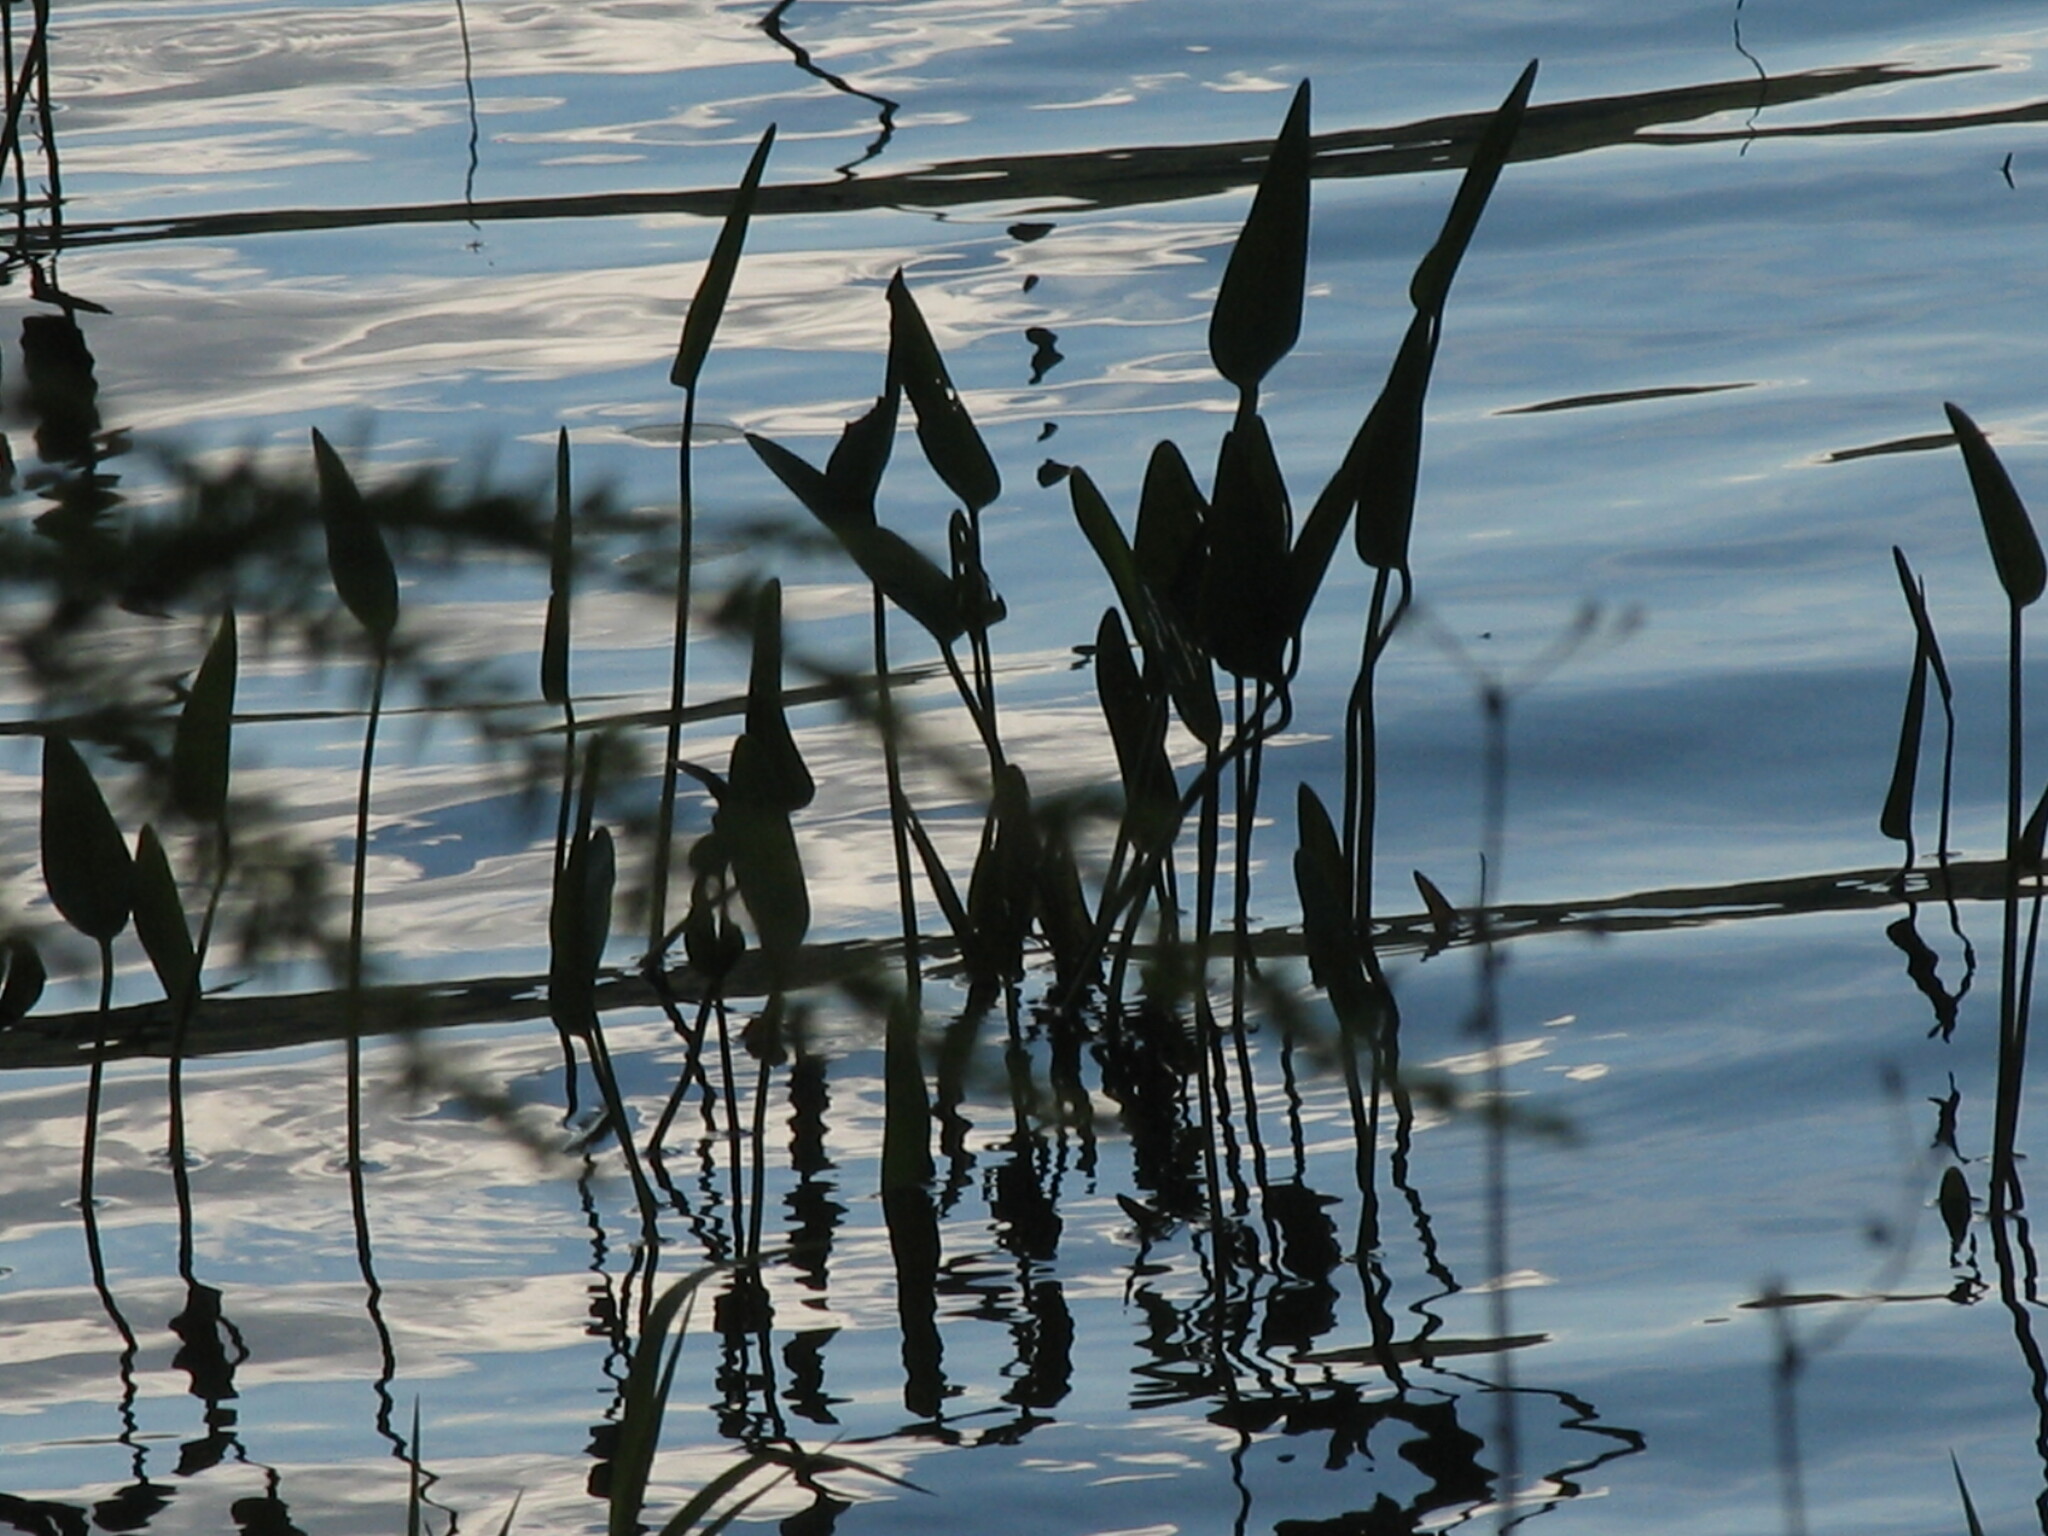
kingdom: Plantae
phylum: Tracheophyta
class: Liliopsida
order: Commelinales
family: Pontederiaceae
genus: Pontederia
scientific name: Pontederia cordata
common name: Pickerelweed
